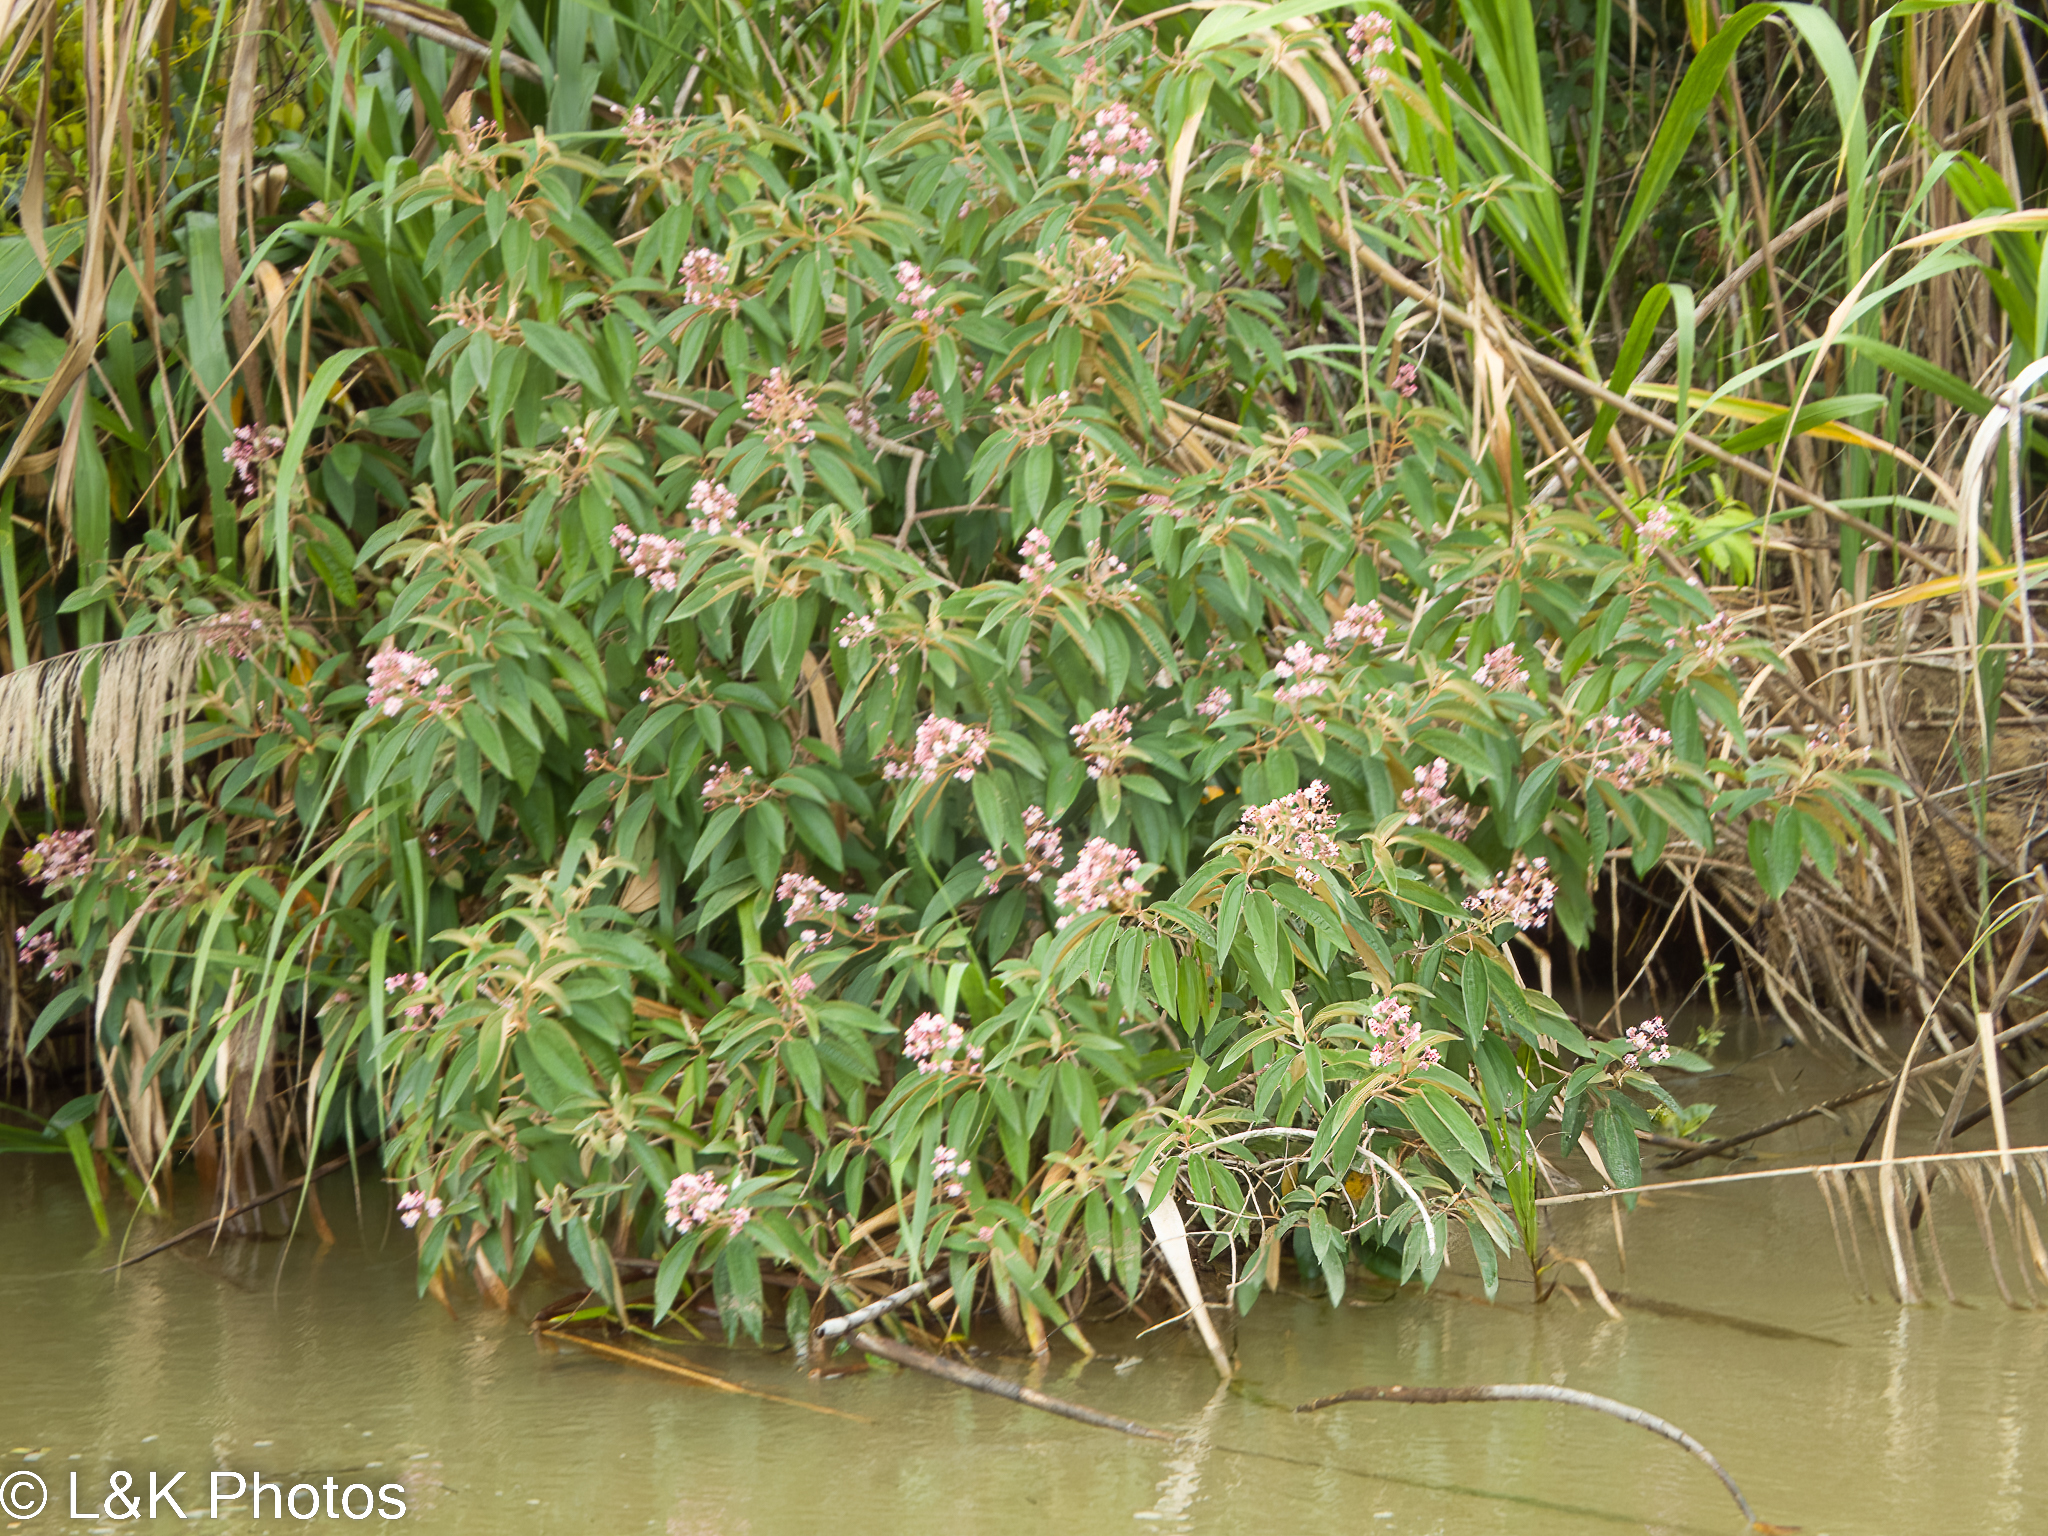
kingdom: Plantae
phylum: Tracheophyta
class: Magnoliopsida
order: Myrtales
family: Melastomataceae
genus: Miconia
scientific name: Miconia xalapensis
